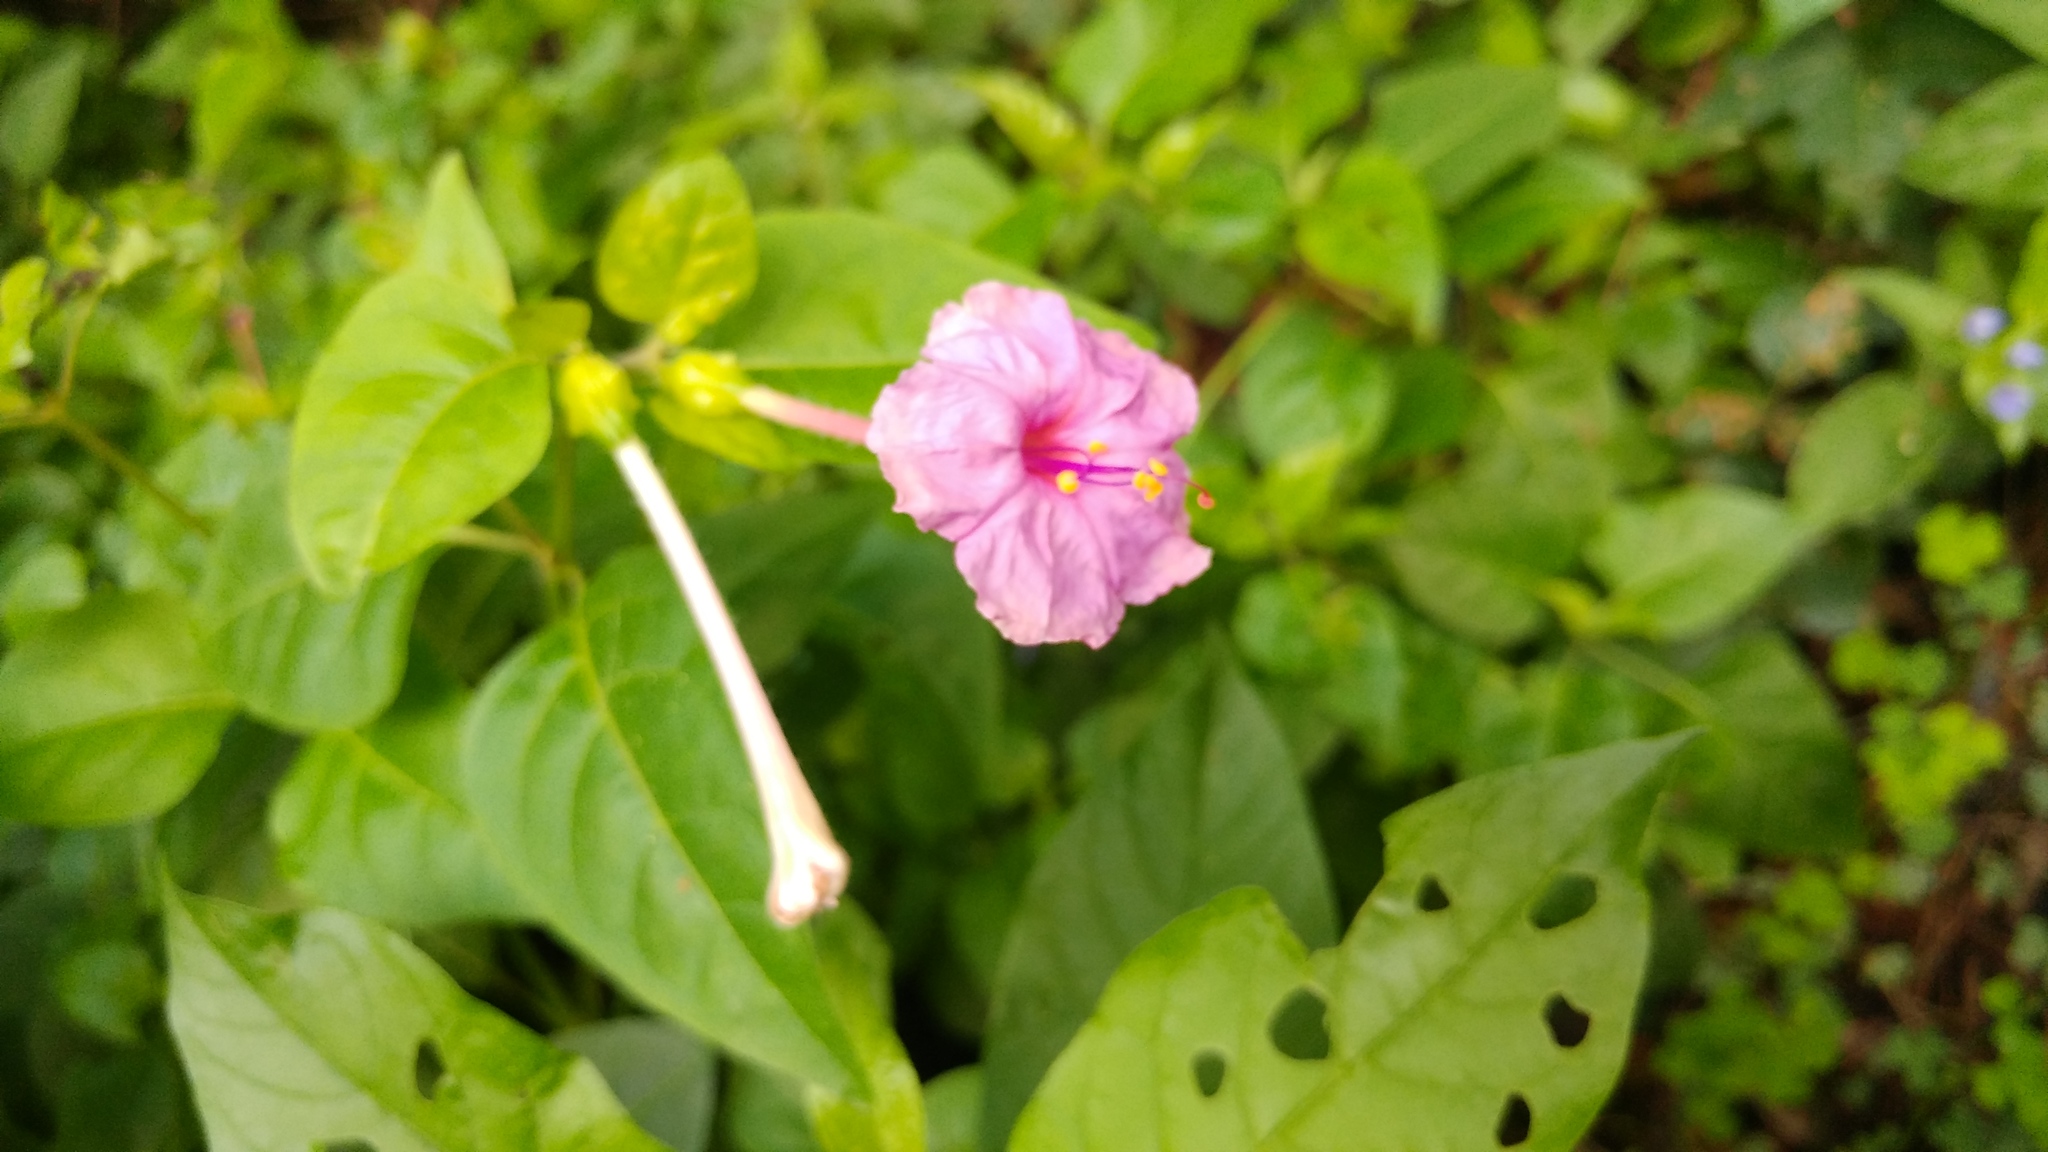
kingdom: Plantae
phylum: Tracheophyta
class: Magnoliopsida
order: Caryophyllales
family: Nyctaginaceae
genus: Mirabilis
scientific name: Mirabilis jalapa
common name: Marvel-of-peru
